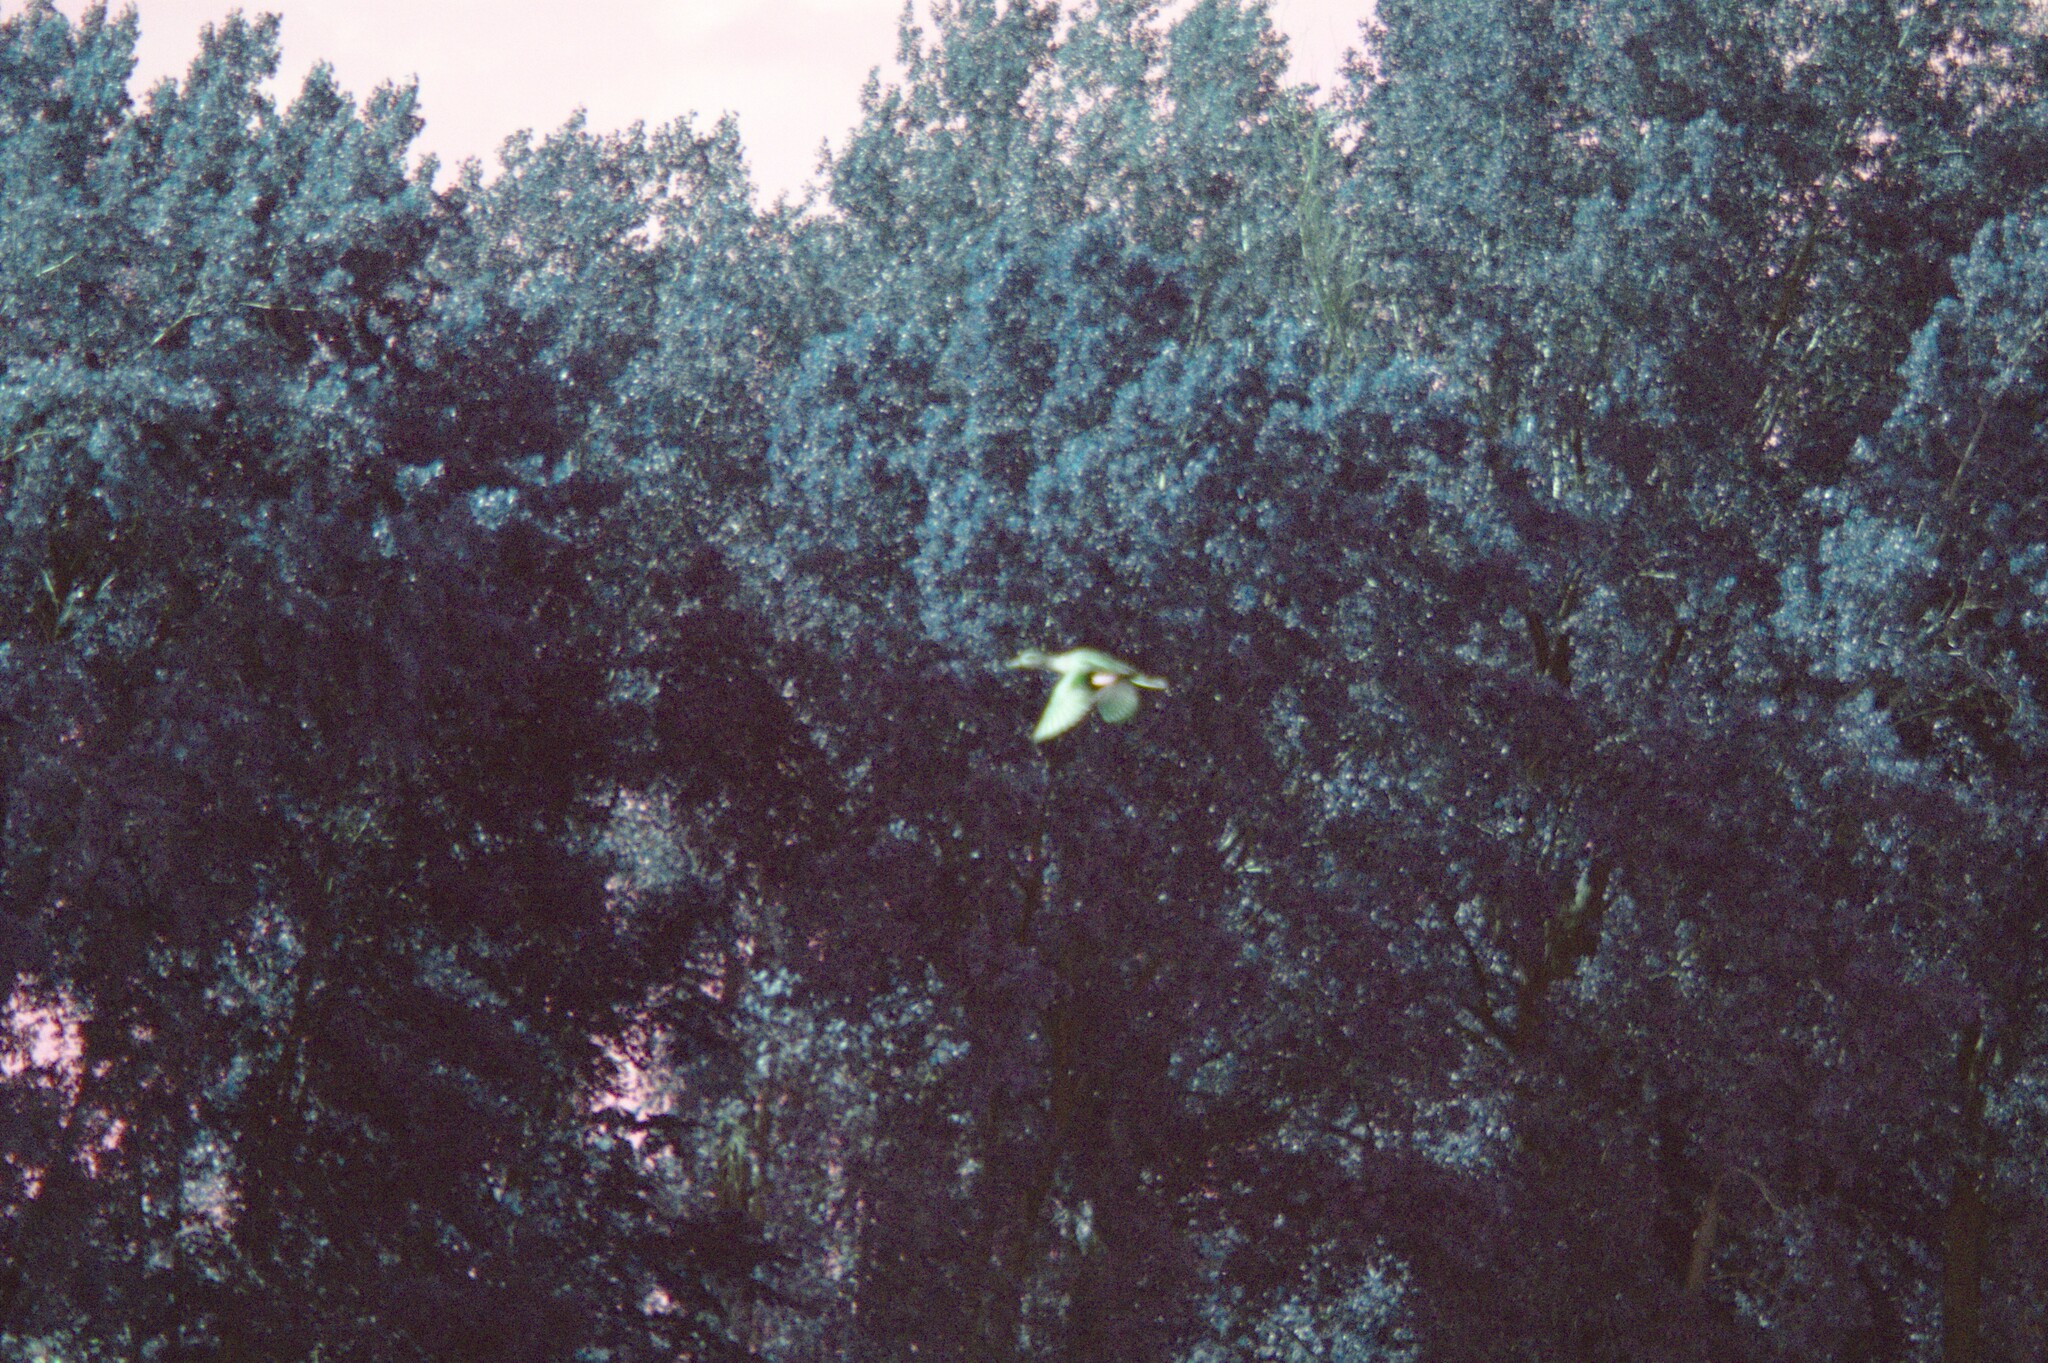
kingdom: Animalia
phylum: Chordata
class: Aves
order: Anseriformes
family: Anatidae
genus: Mareca
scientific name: Mareca strepera
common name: Gadwall
